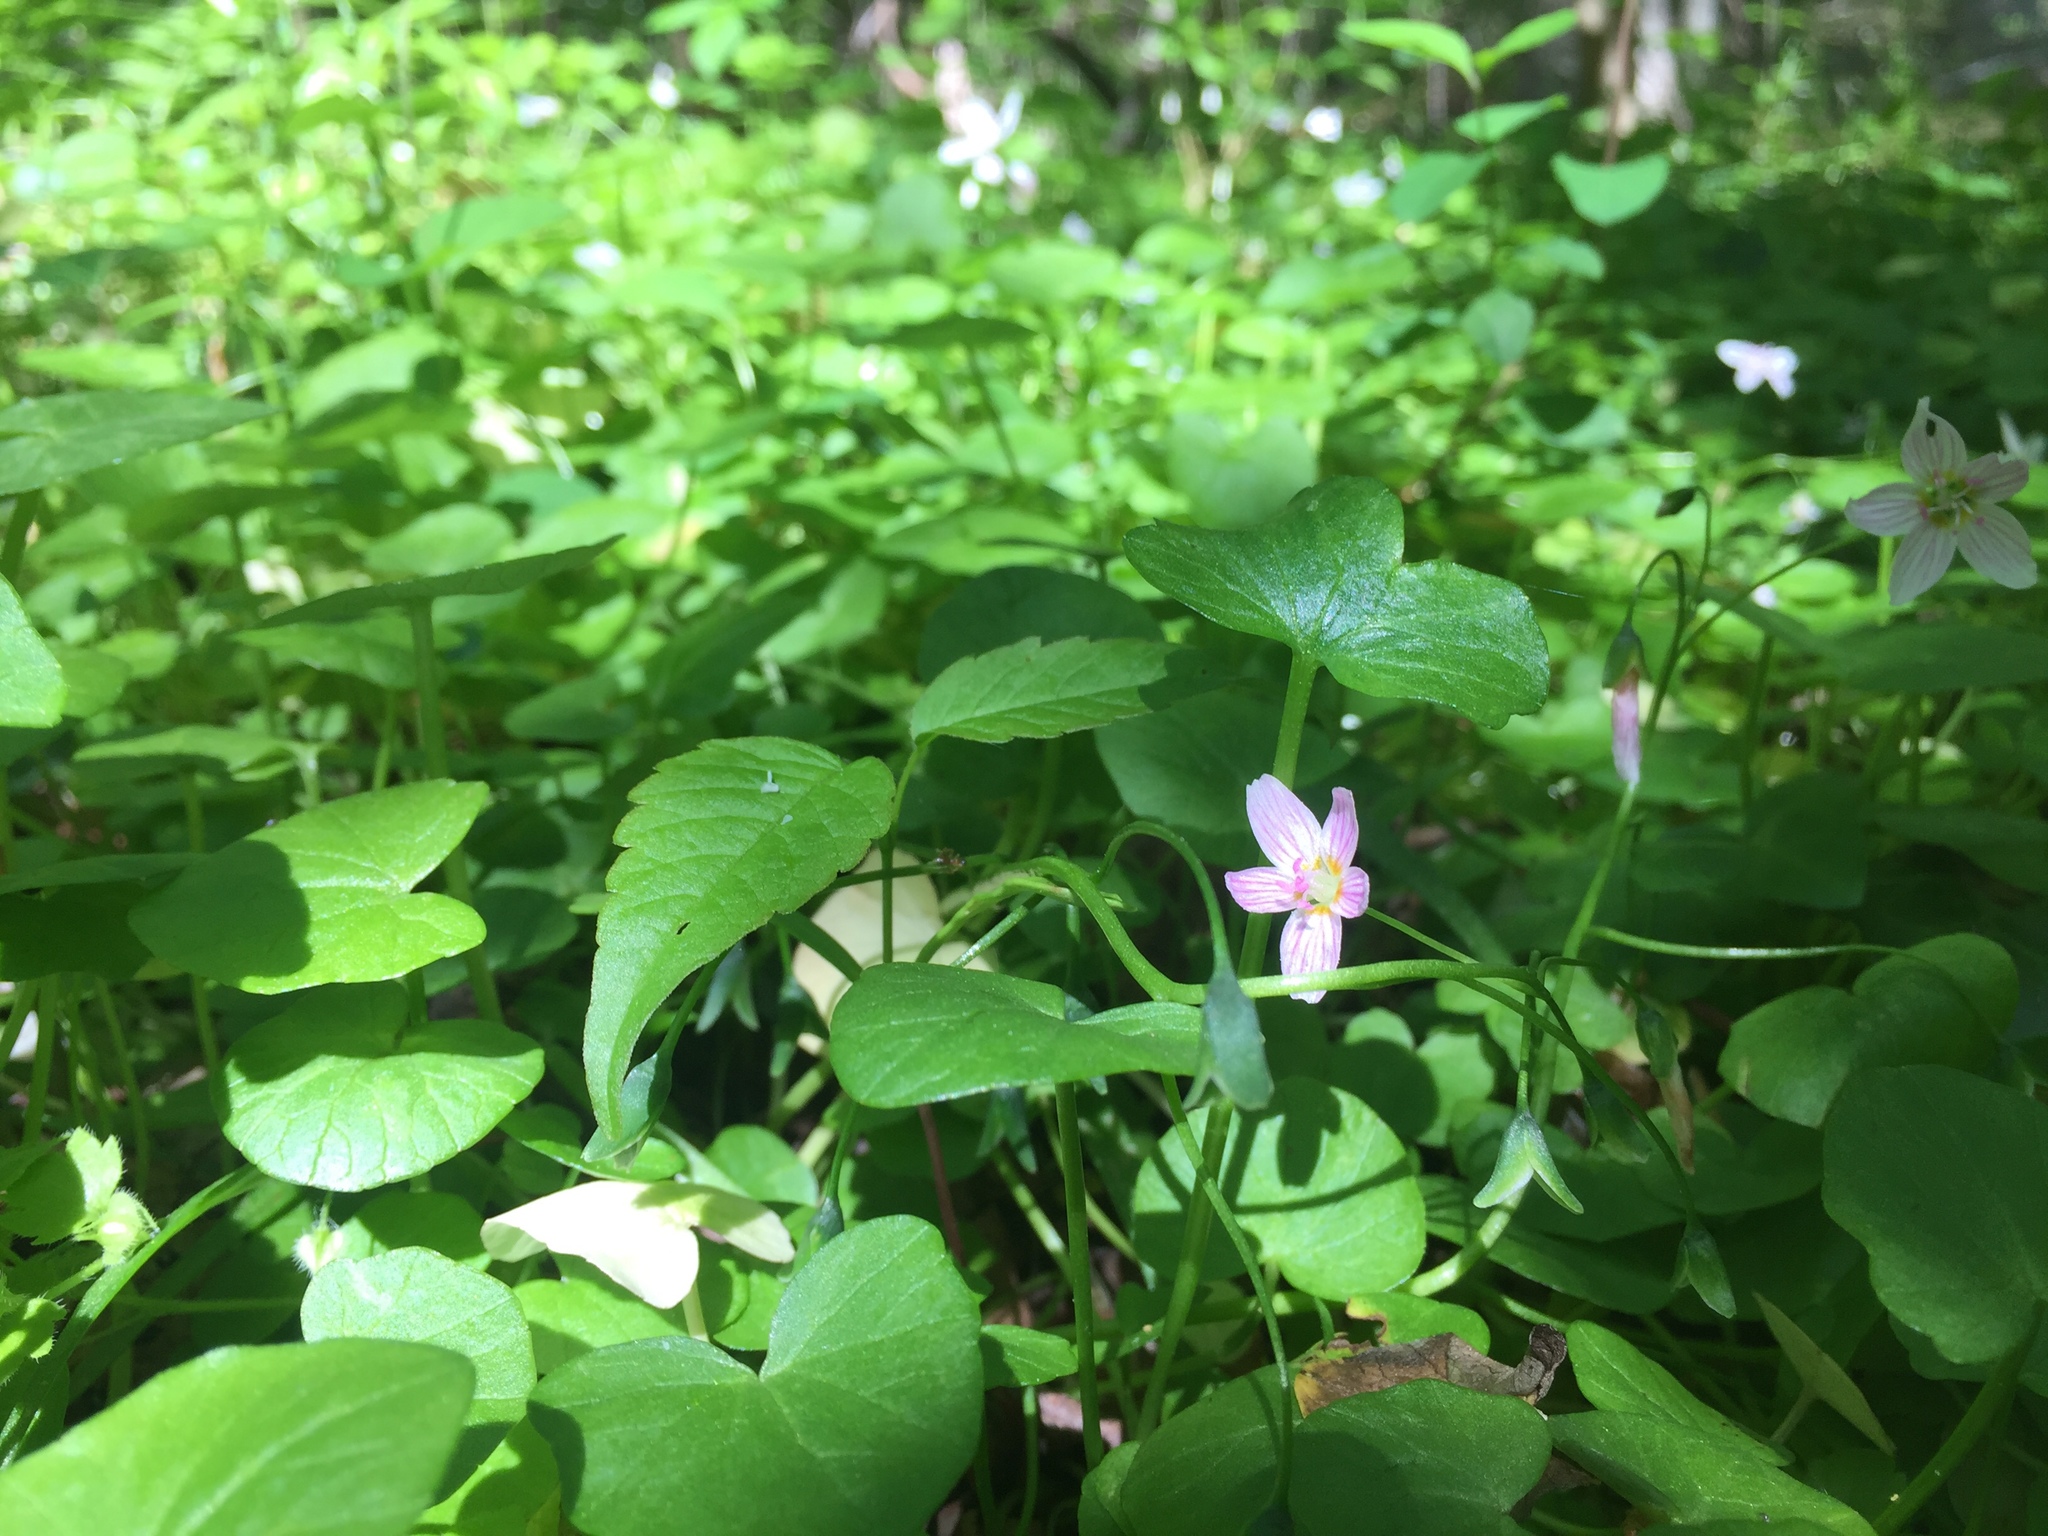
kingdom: Plantae
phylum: Tracheophyta
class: Magnoliopsida
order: Caryophyllales
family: Montiaceae
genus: Claytonia
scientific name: Claytonia virginica
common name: Virginia springbeauty
